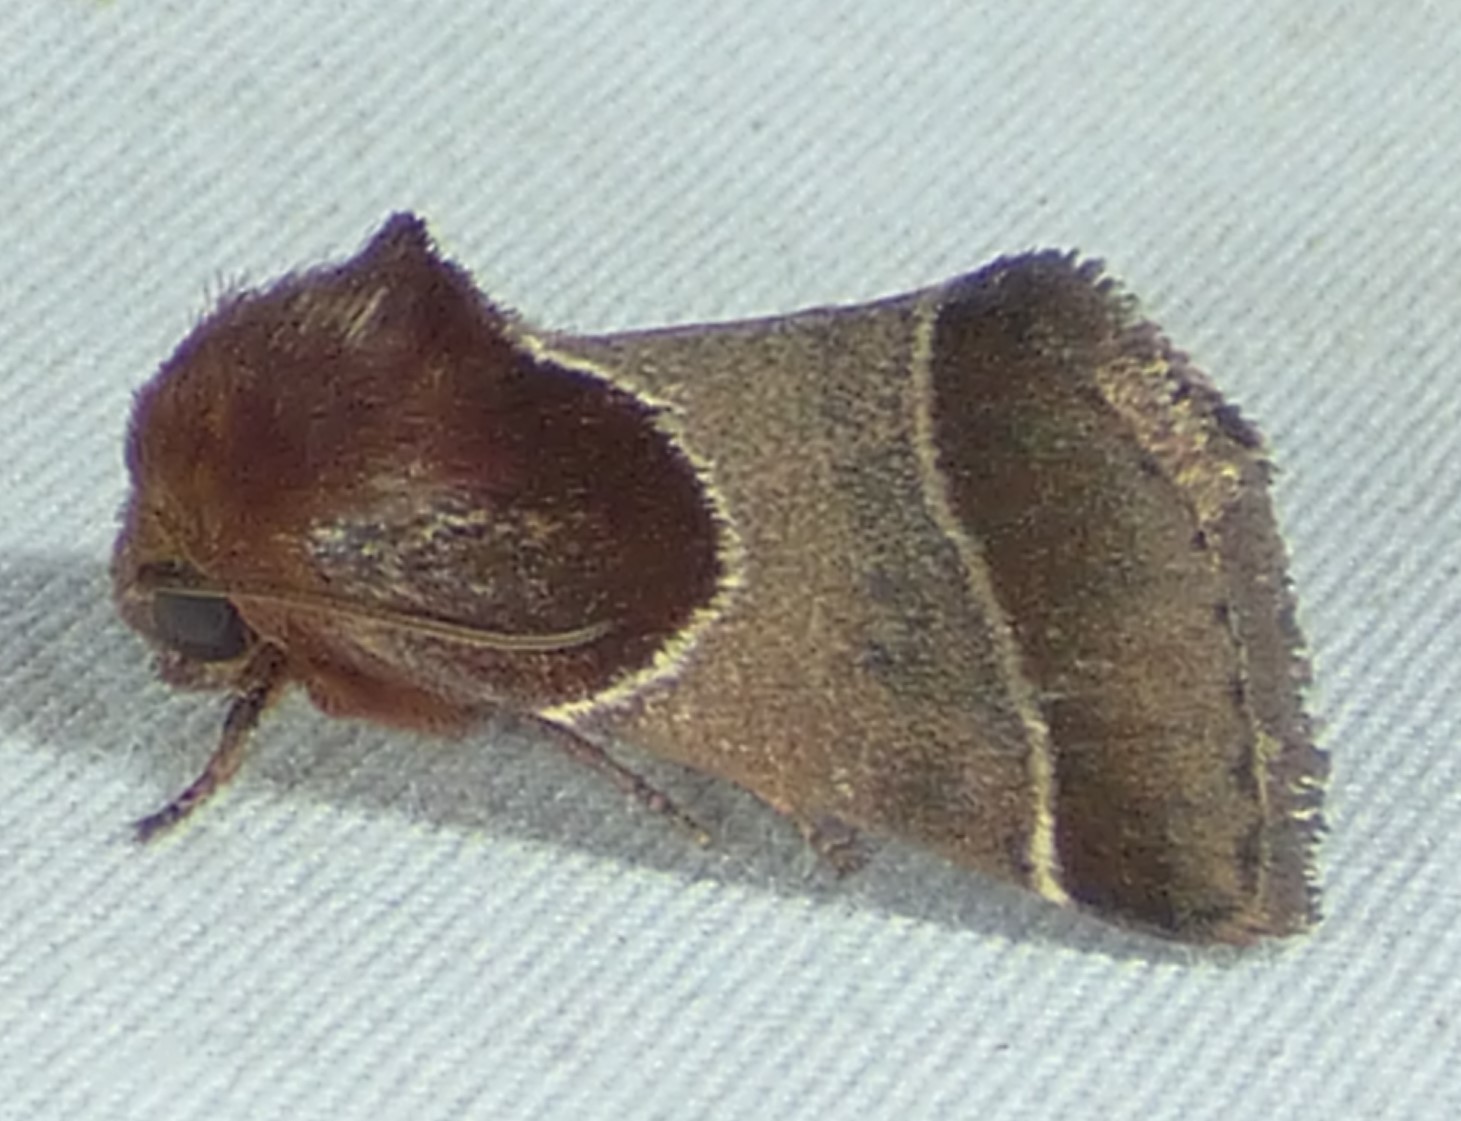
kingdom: Animalia
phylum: Arthropoda
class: Insecta
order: Lepidoptera
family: Noctuidae
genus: Schinia
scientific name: Schinia arcigera
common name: Arcigera flower moth
